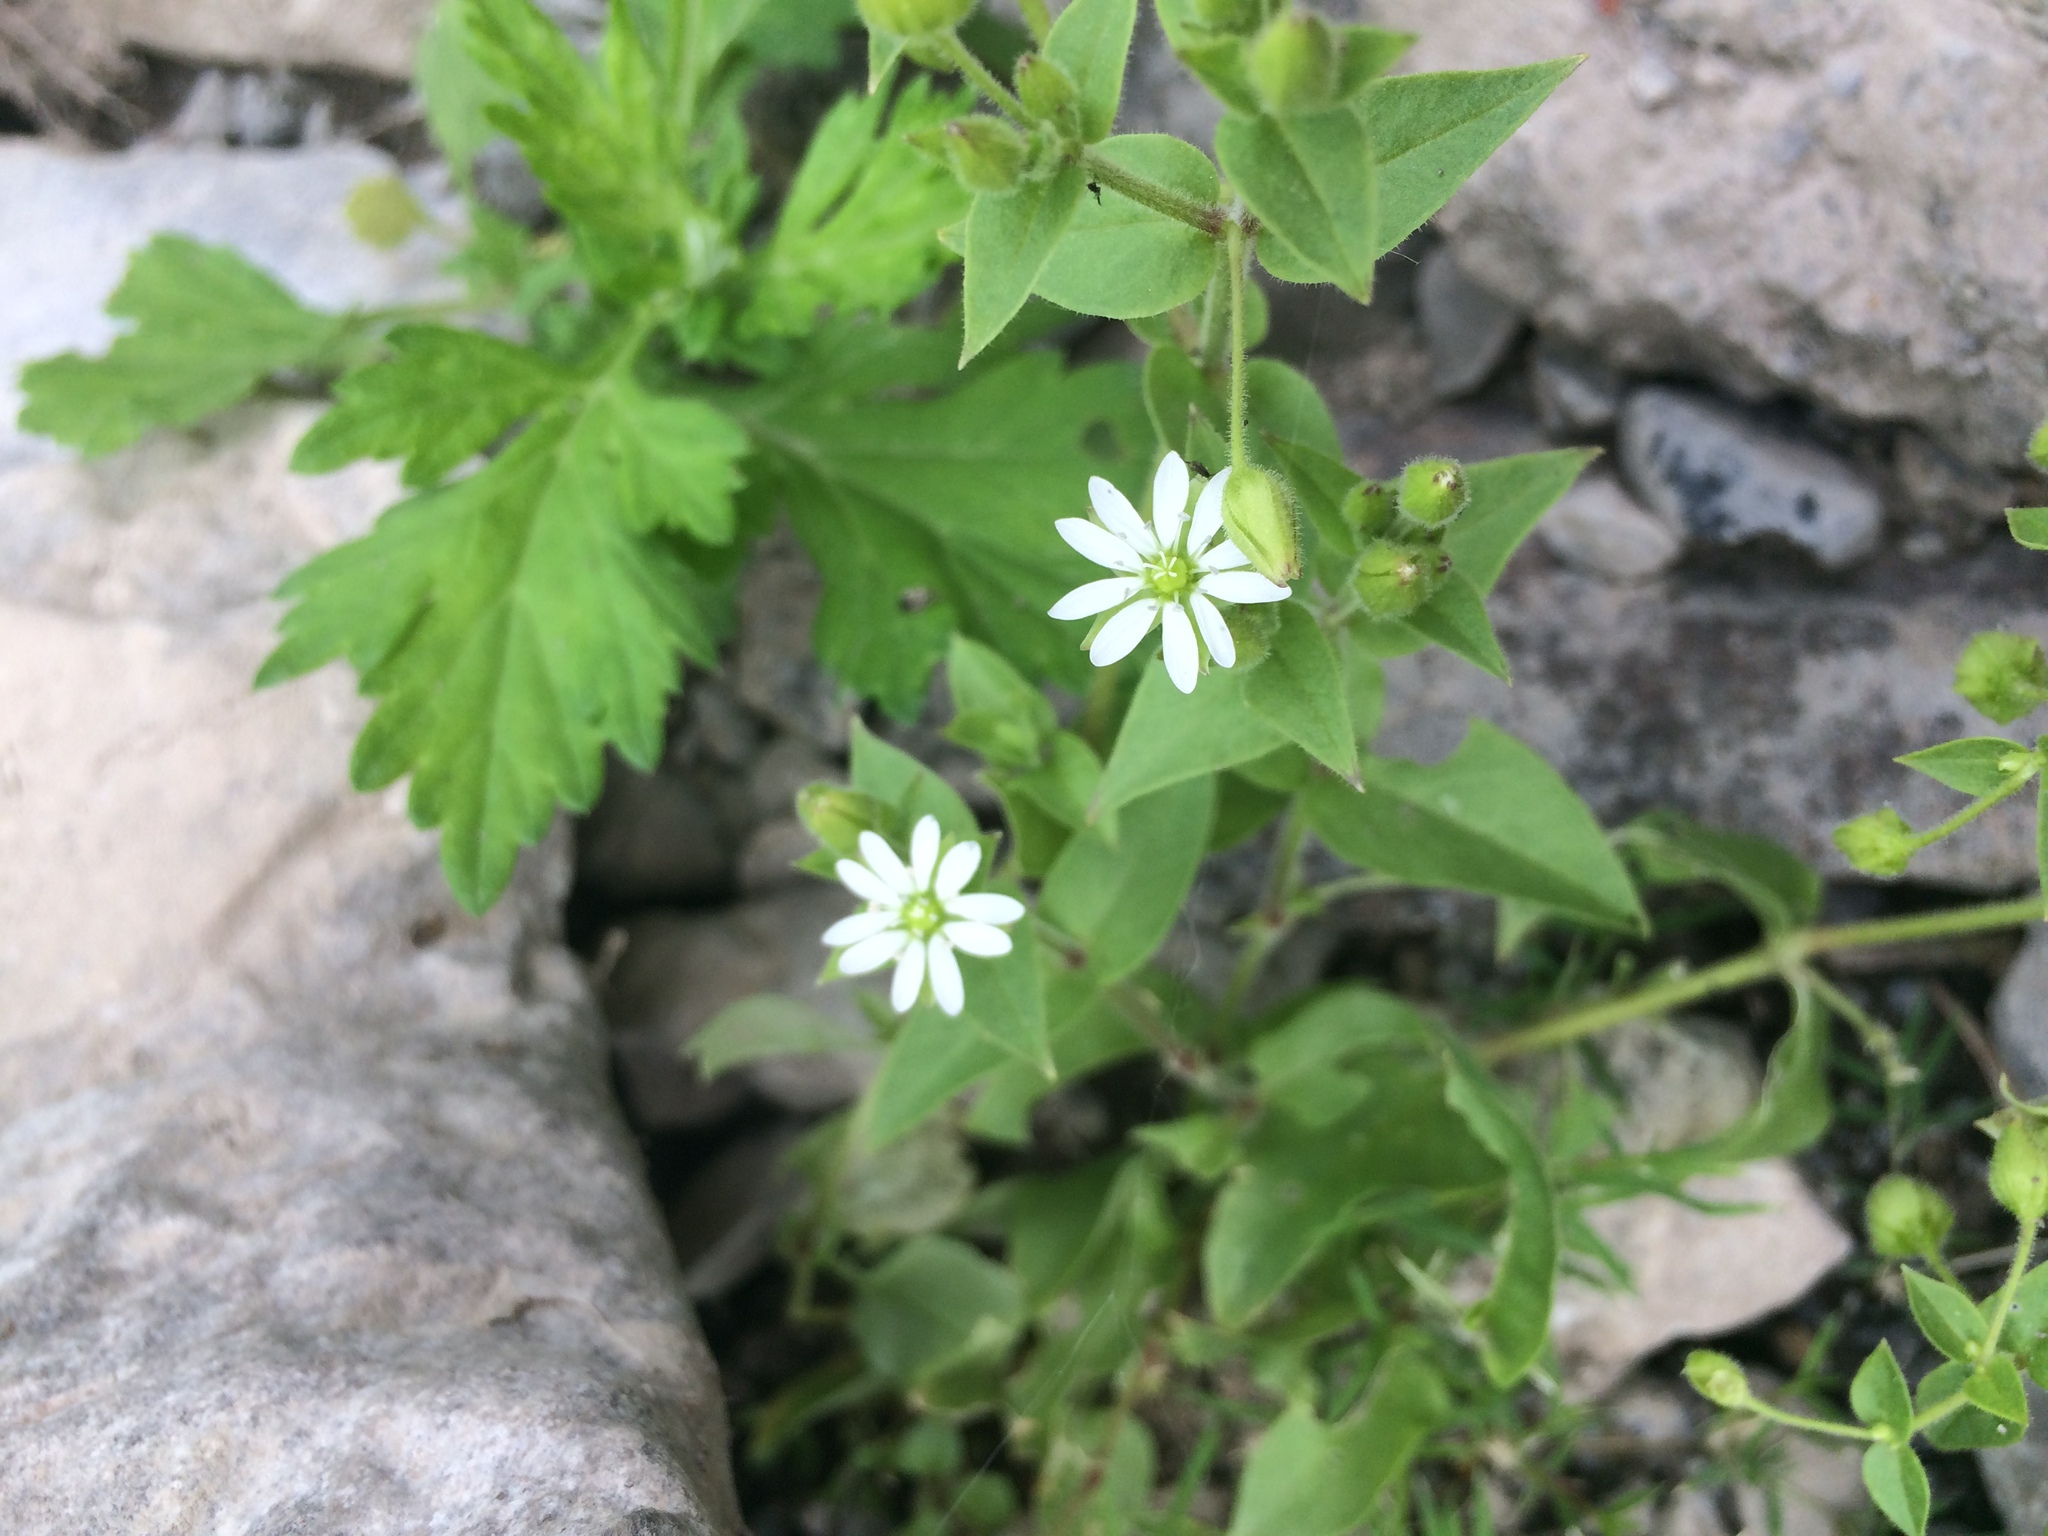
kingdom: Plantae
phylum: Tracheophyta
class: Magnoliopsida
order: Caryophyllales
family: Caryophyllaceae
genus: Stellaria
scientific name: Stellaria aquatica
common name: Water chickweed
